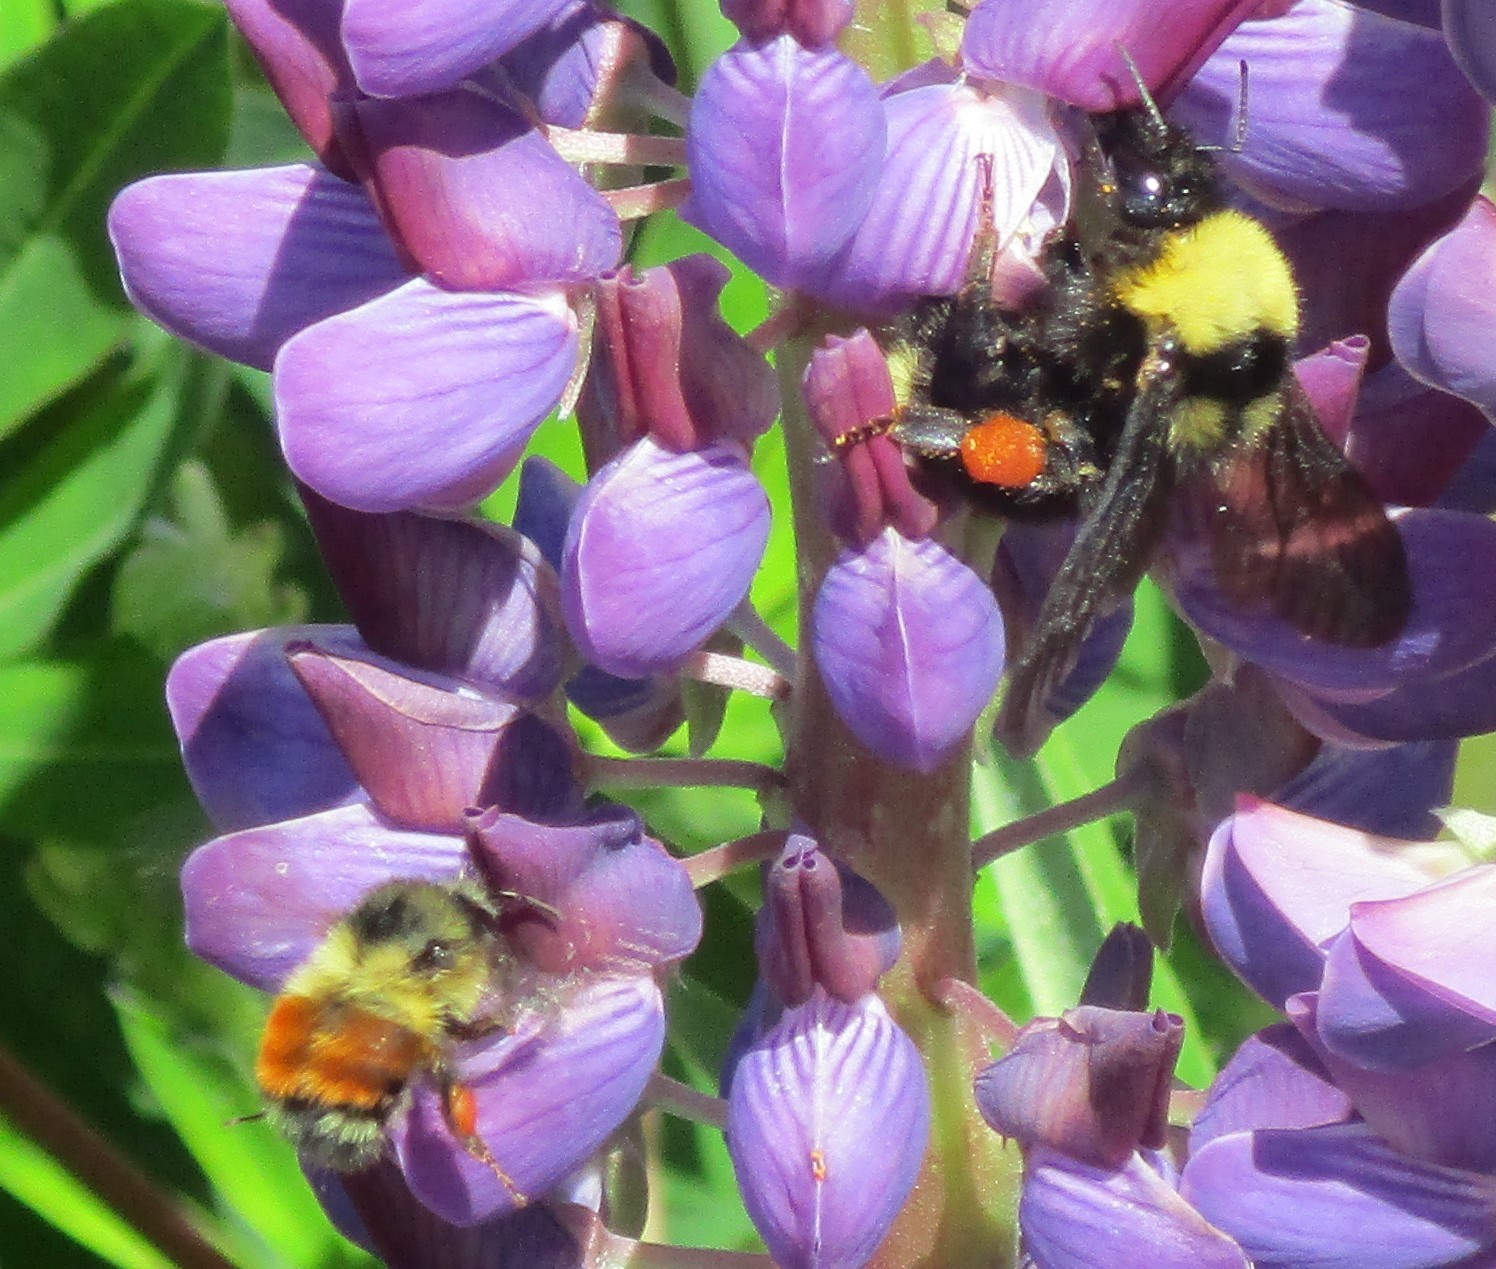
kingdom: Animalia
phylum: Arthropoda
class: Insecta
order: Hymenoptera
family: Apidae
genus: Bombus
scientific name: Bombus melanopygus
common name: Black tail bumble bee
